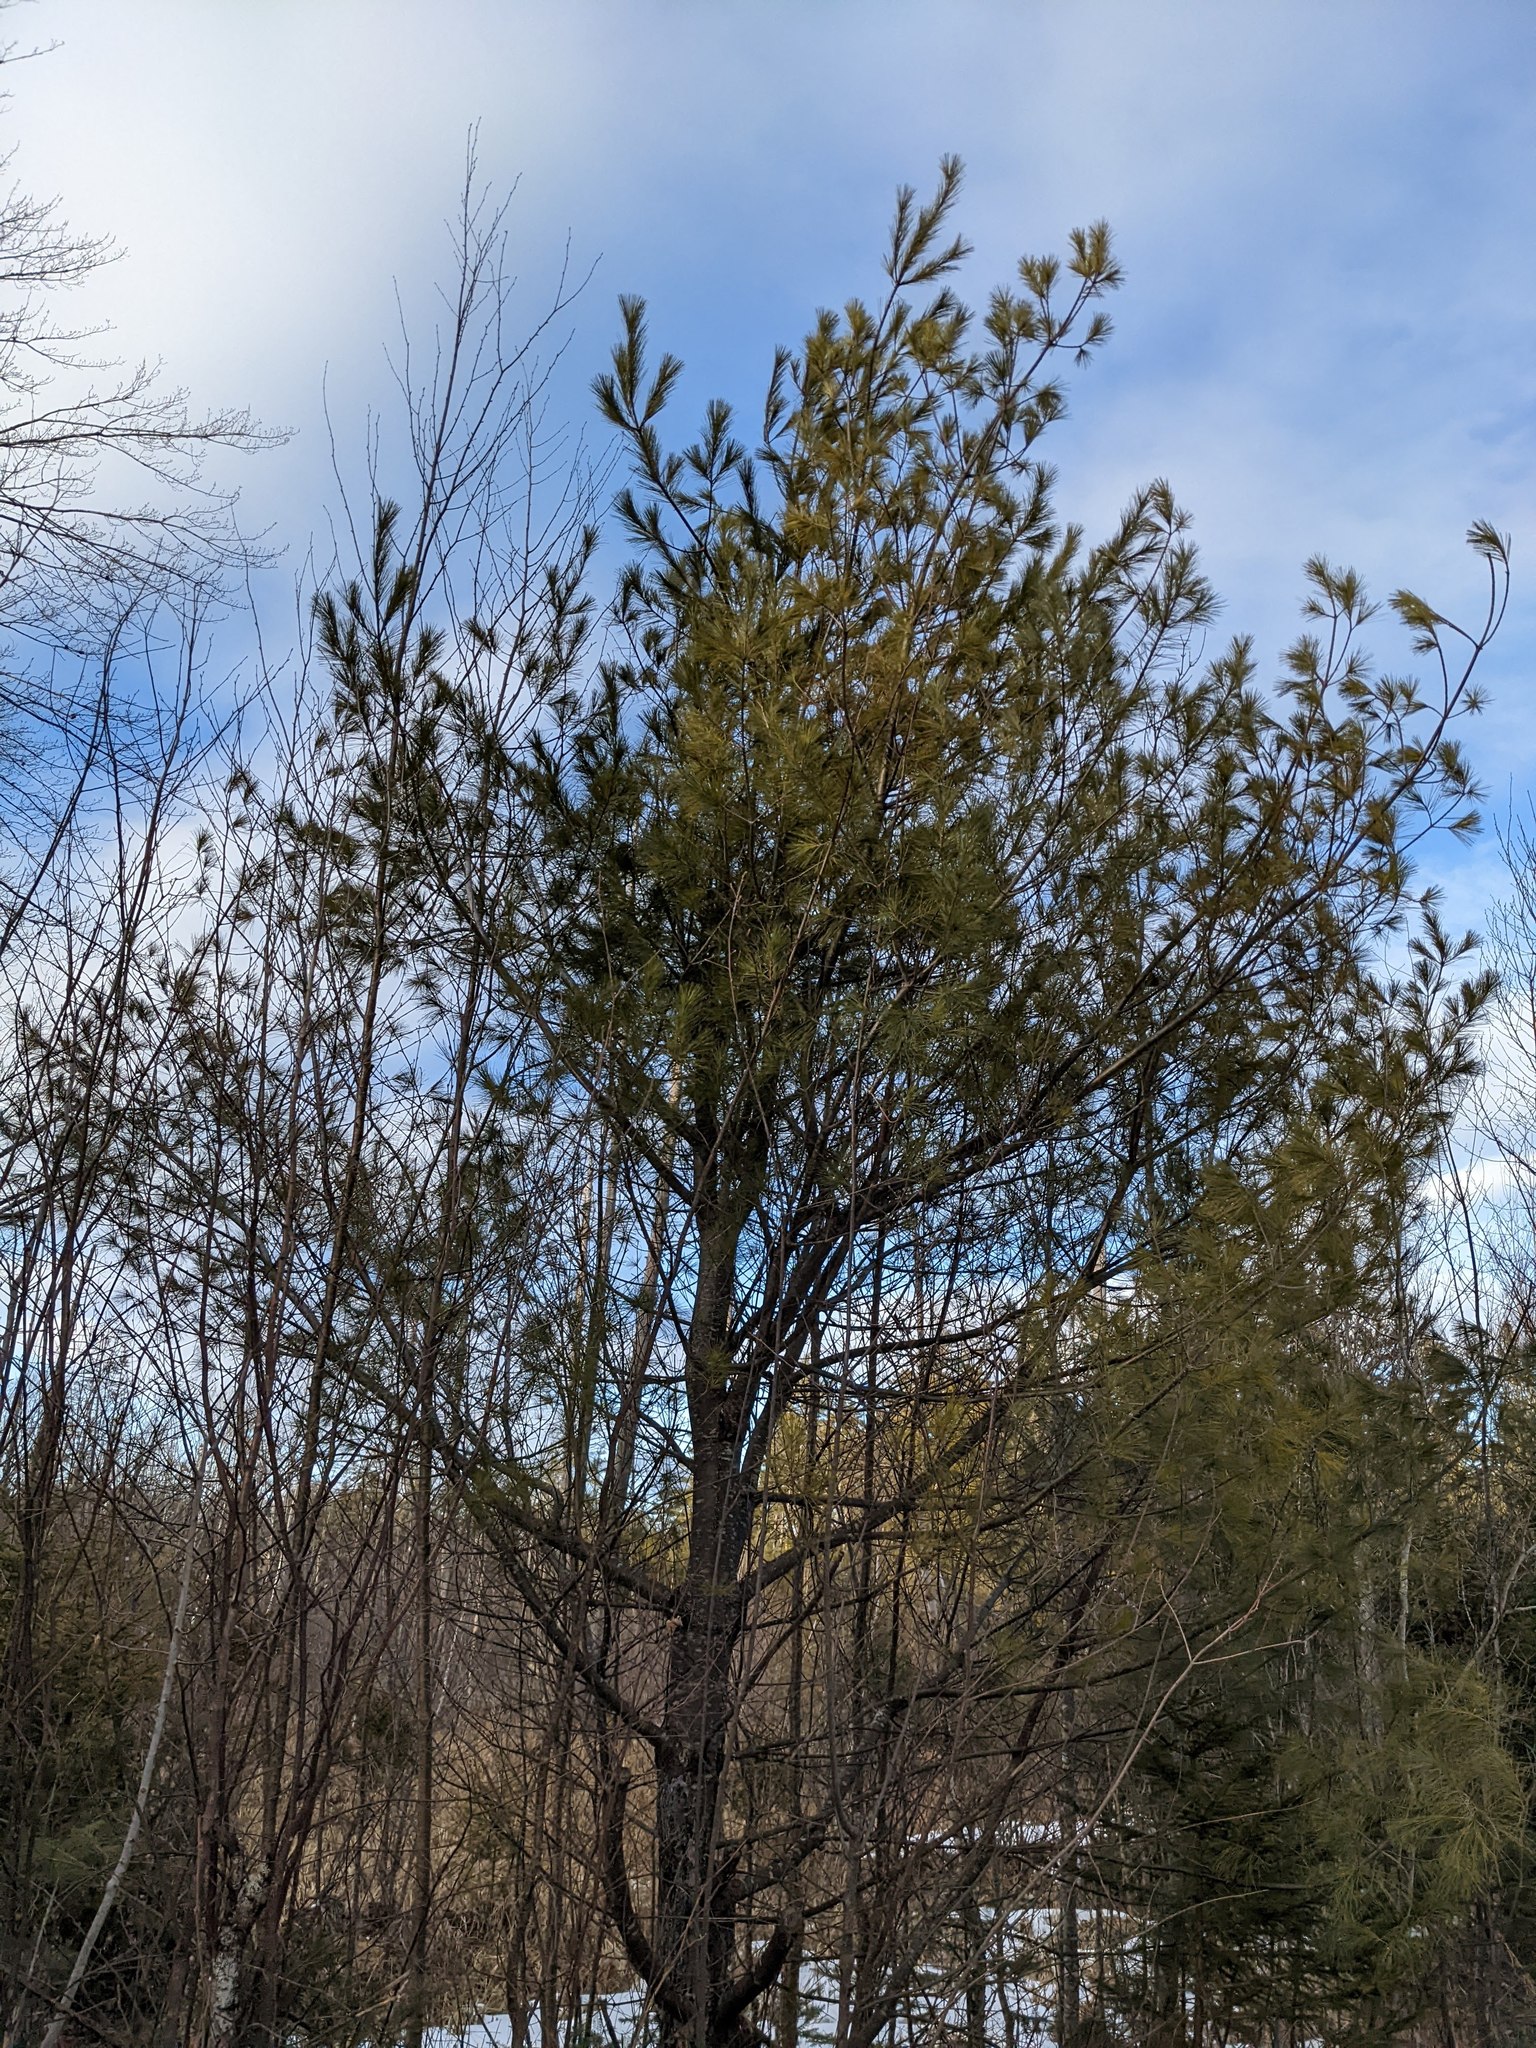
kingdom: Plantae
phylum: Tracheophyta
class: Pinopsida
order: Pinales
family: Pinaceae
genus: Pinus
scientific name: Pinus strobus
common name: Weymouth pine
